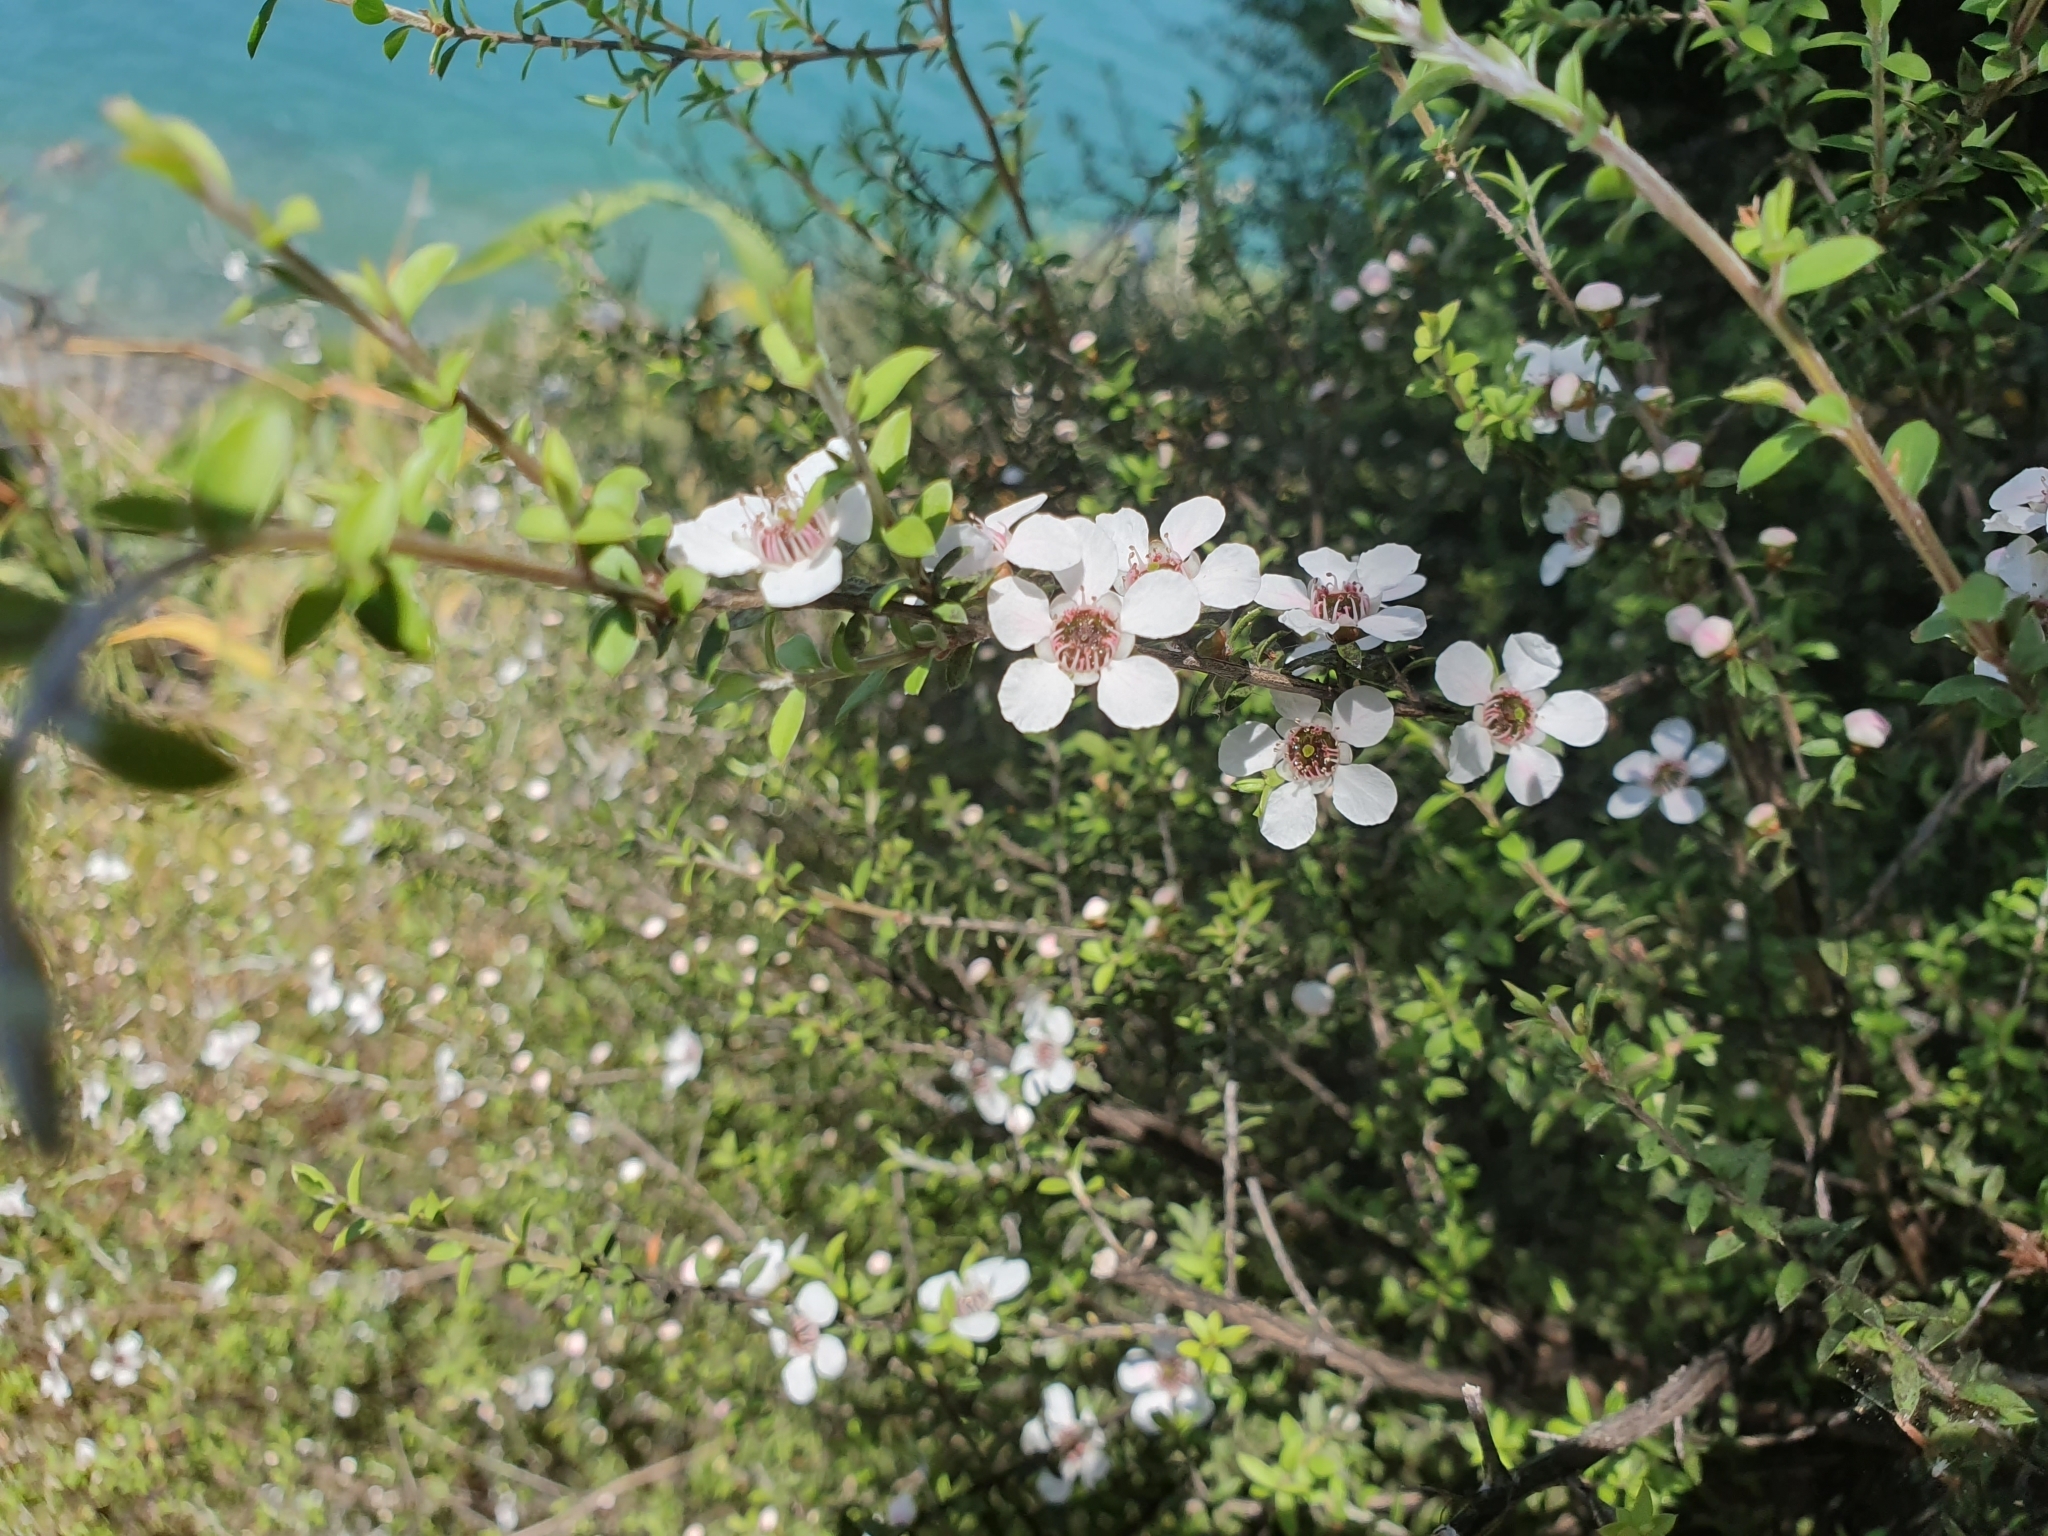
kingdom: Plantae
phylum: Tracheophyta
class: Magnoliopsida
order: Myrtales
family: Myrtaceae
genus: Leptospermum
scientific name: Leptospermum scoparium
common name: Broom tea-tree
